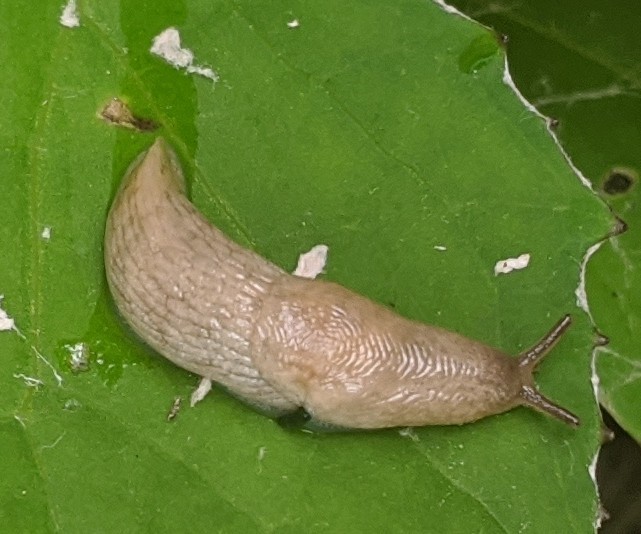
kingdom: Animalia
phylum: Mollusca
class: Gastropoda
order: Stylommatophora
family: Agriolimacidae
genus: Deroceras
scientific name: Deroceras reticulatum
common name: Gray field slug
